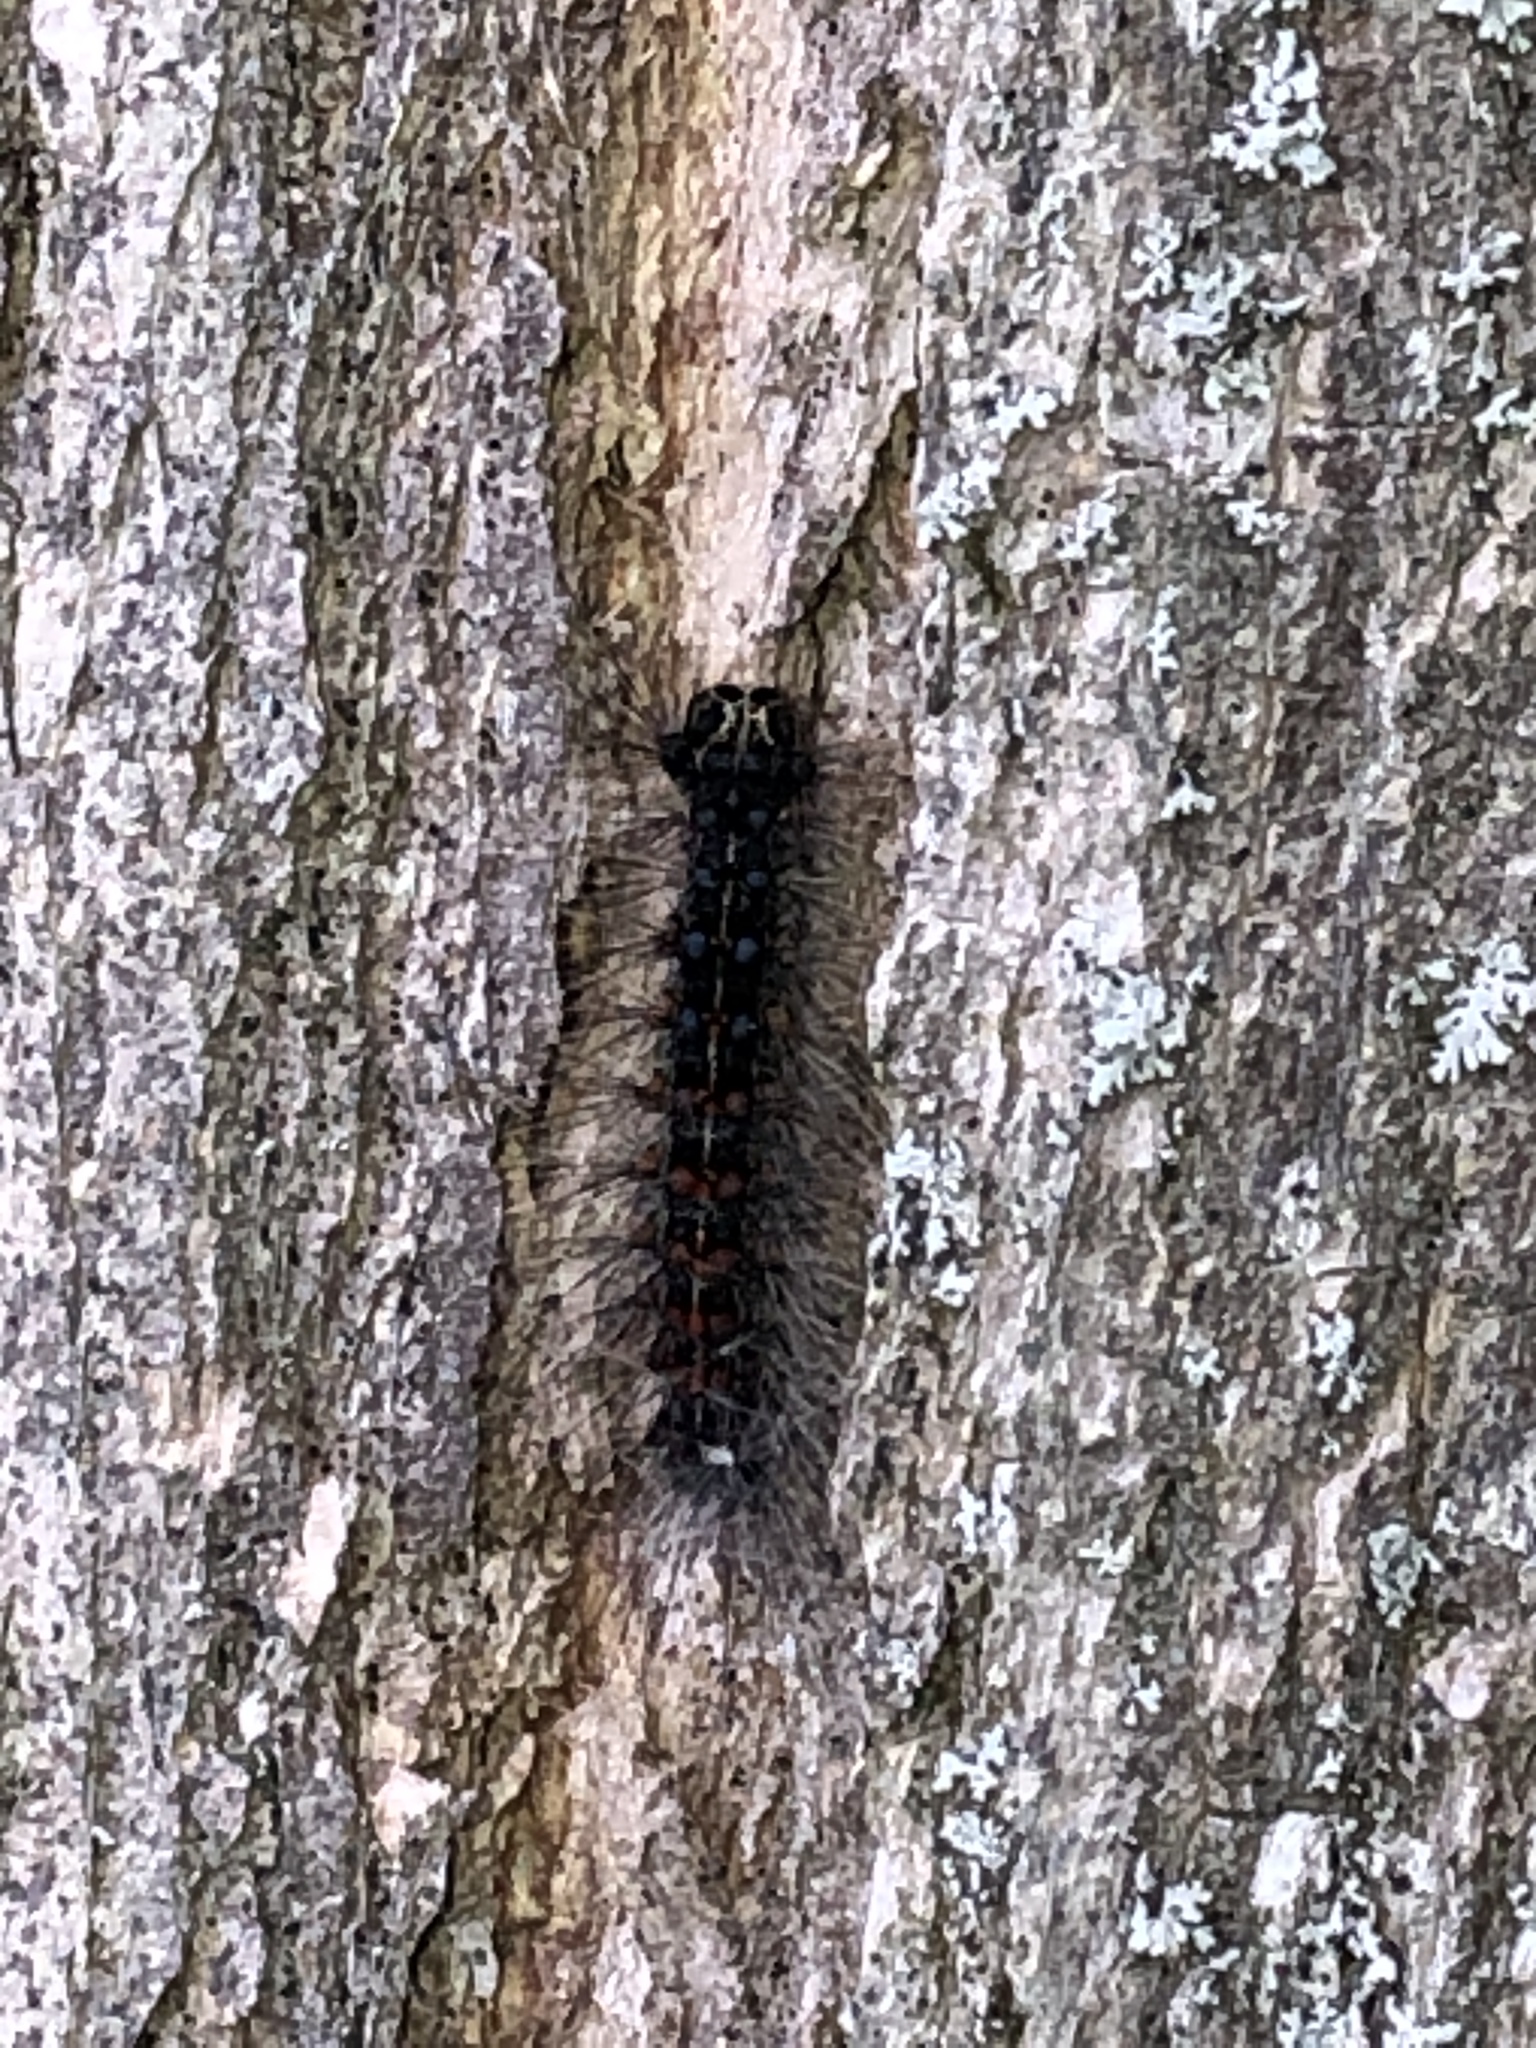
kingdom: Animalia
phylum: Arthropoda
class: Insecta
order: Lepidoptera
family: Erebidae
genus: Lymantria
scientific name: Lymantria dispar
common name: Gypsy moth
